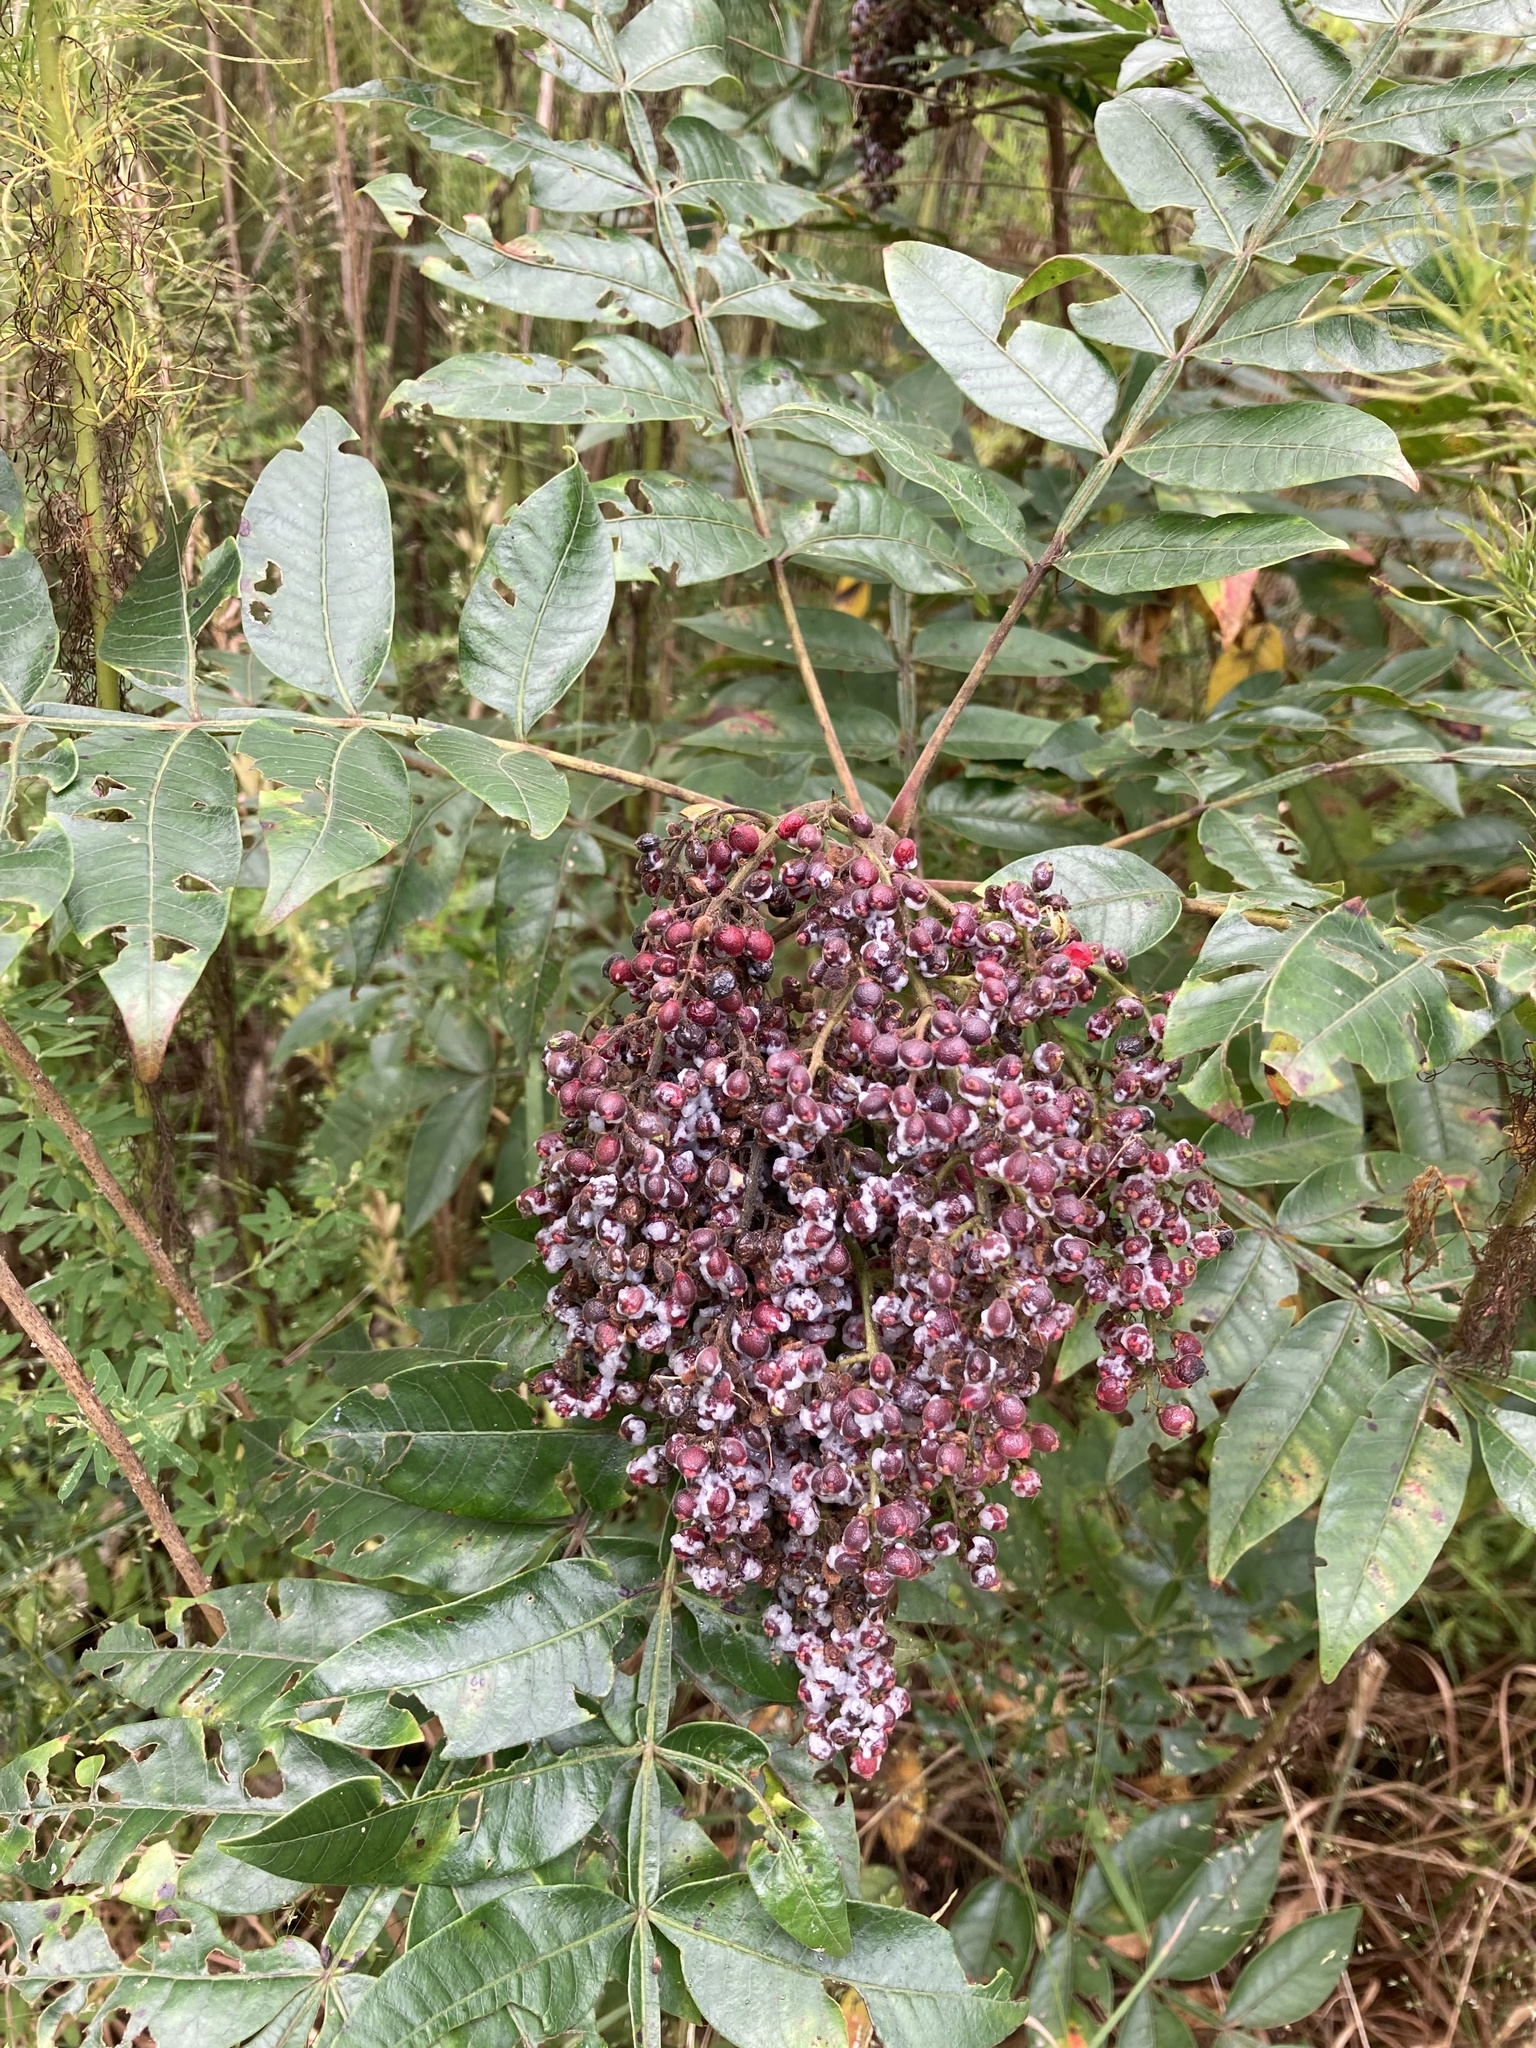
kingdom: Plantae
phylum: Tracheophyta
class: Magnoliopsida
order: Sapindales
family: Anacardiaceae
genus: Rhus
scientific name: Rhus copallina
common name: Shining sumac
